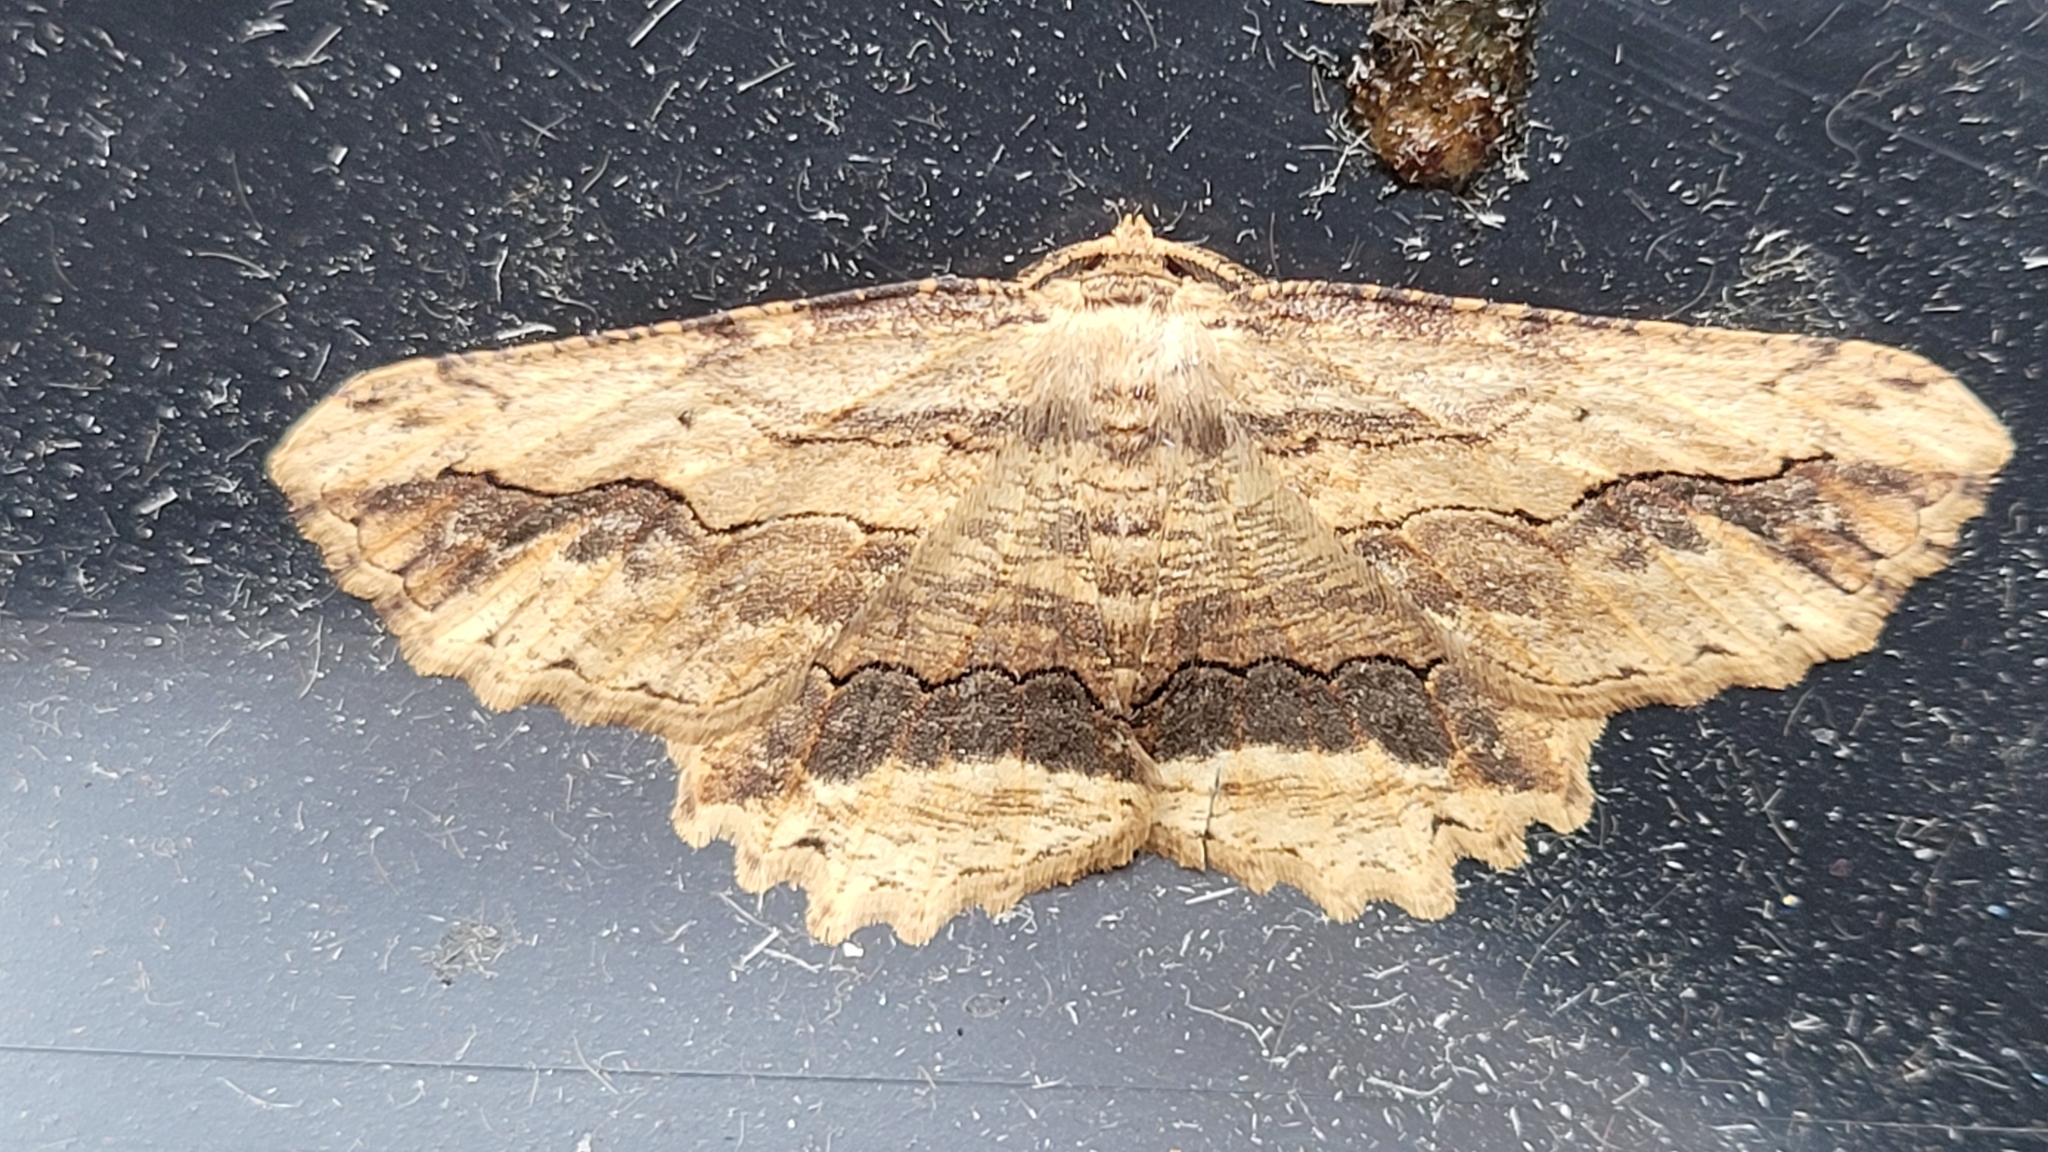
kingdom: Animalia
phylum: Arthropoda
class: Insecta
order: Lepidoptera
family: Geometridae
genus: Menophra
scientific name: Menophra abruptaria
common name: Waved umber
